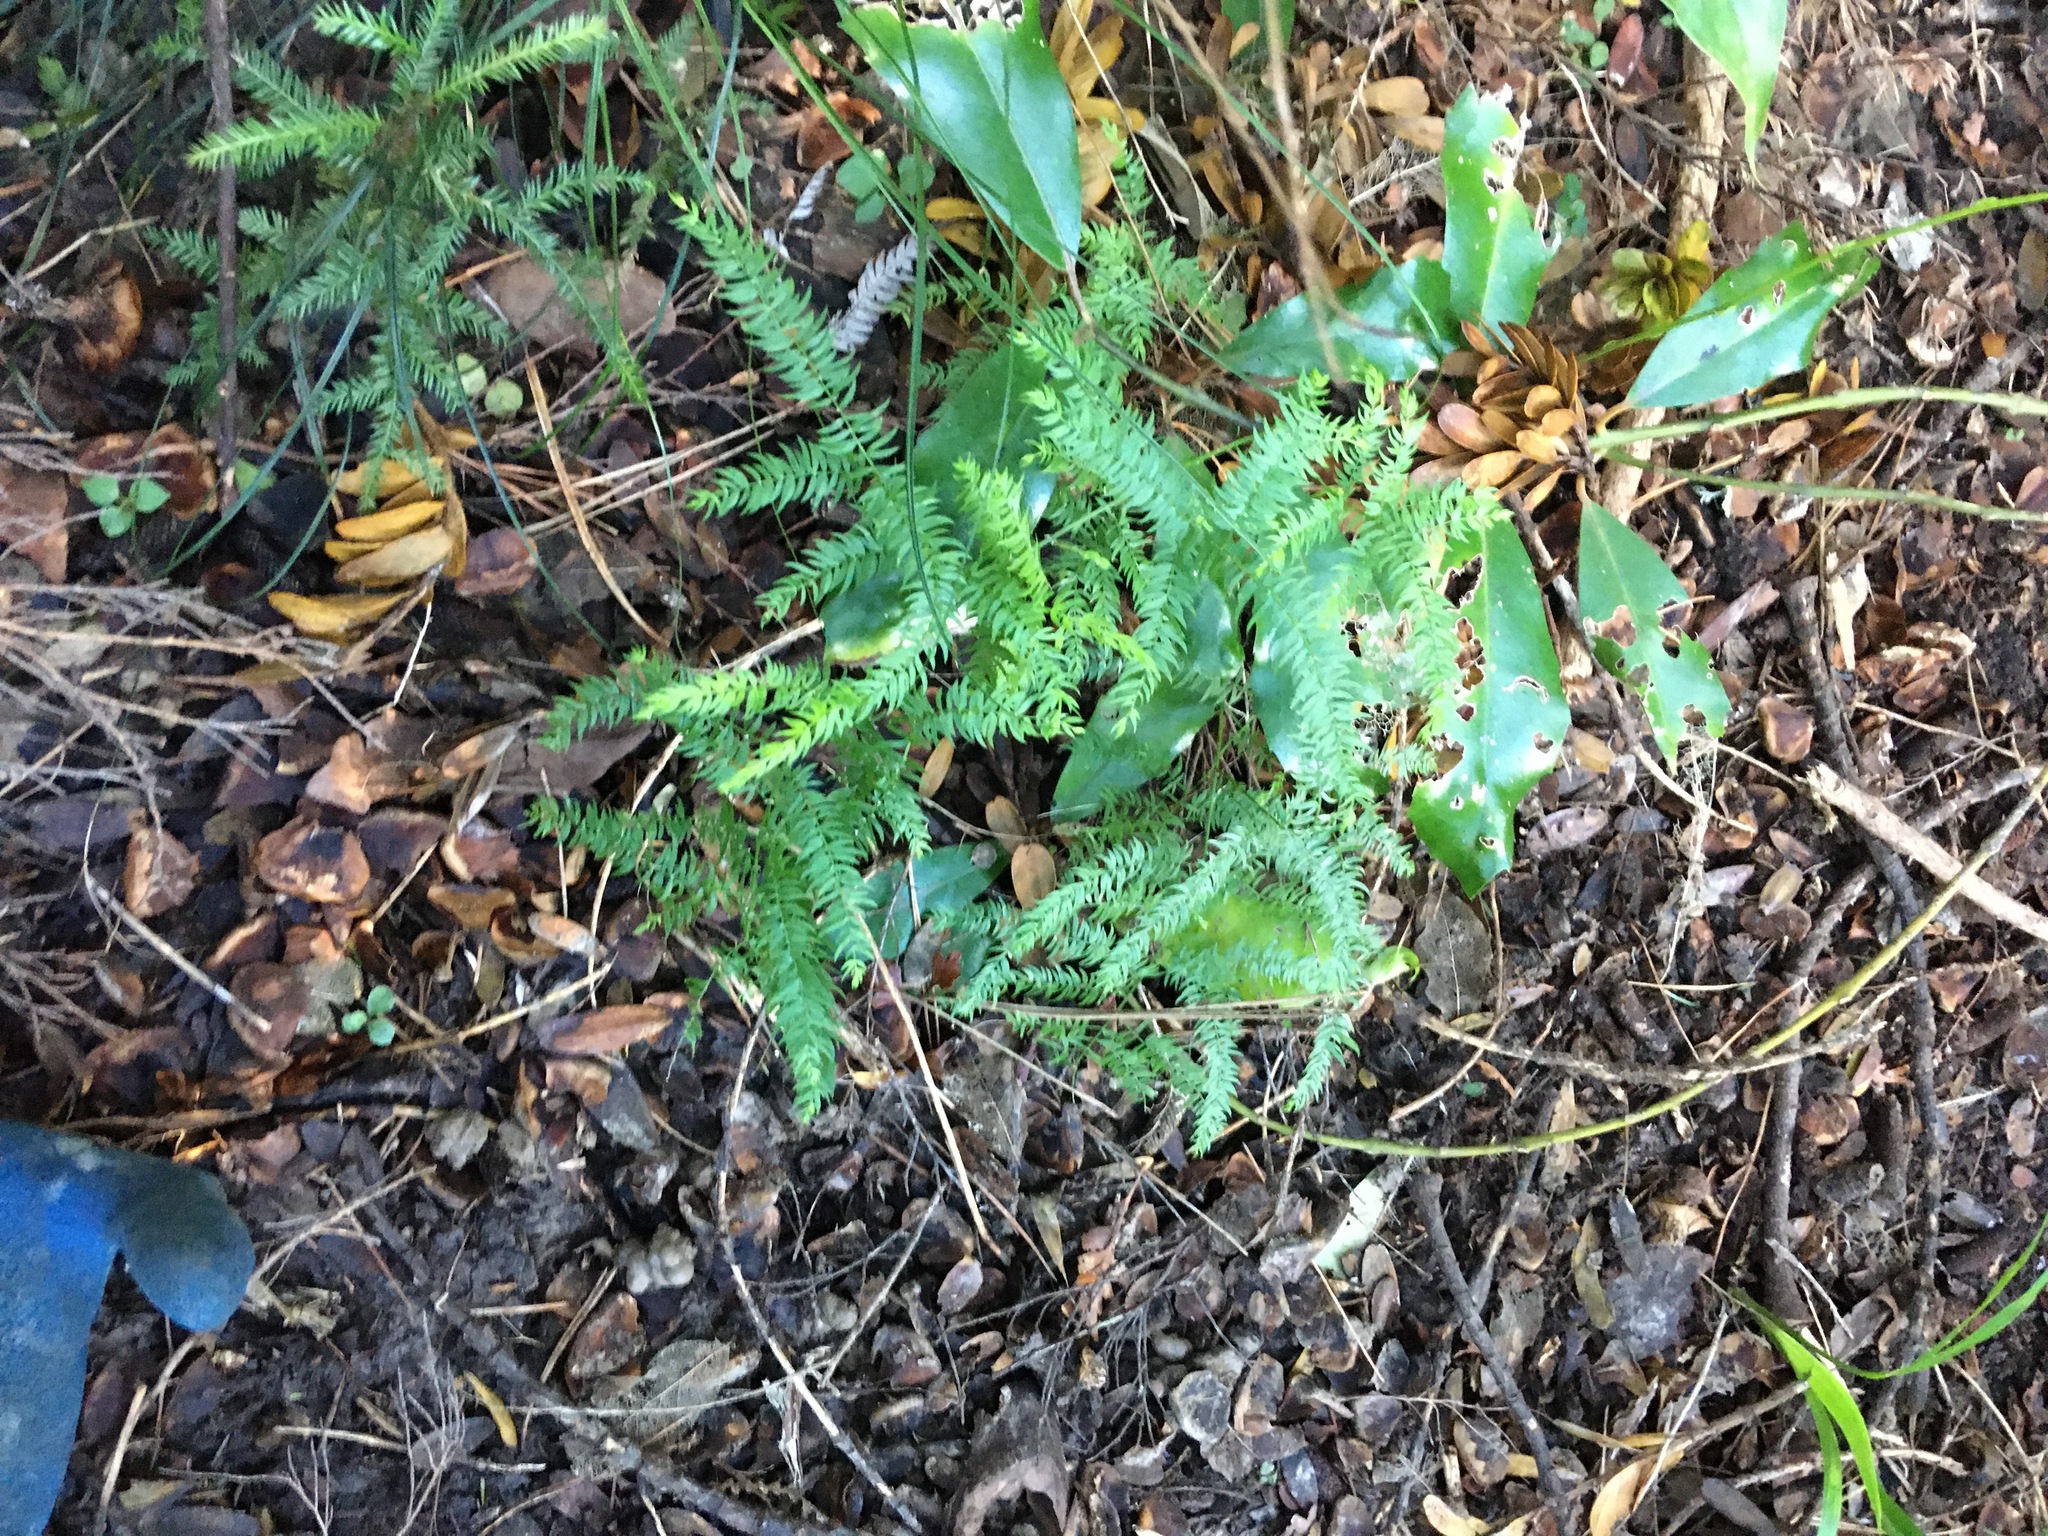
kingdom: Plantae
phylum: Tracheophyta
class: Liliopsida
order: Asparagales
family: Asparagaceae
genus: Asparagus
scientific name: Asparagus scandens
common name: Asparagus-fern
